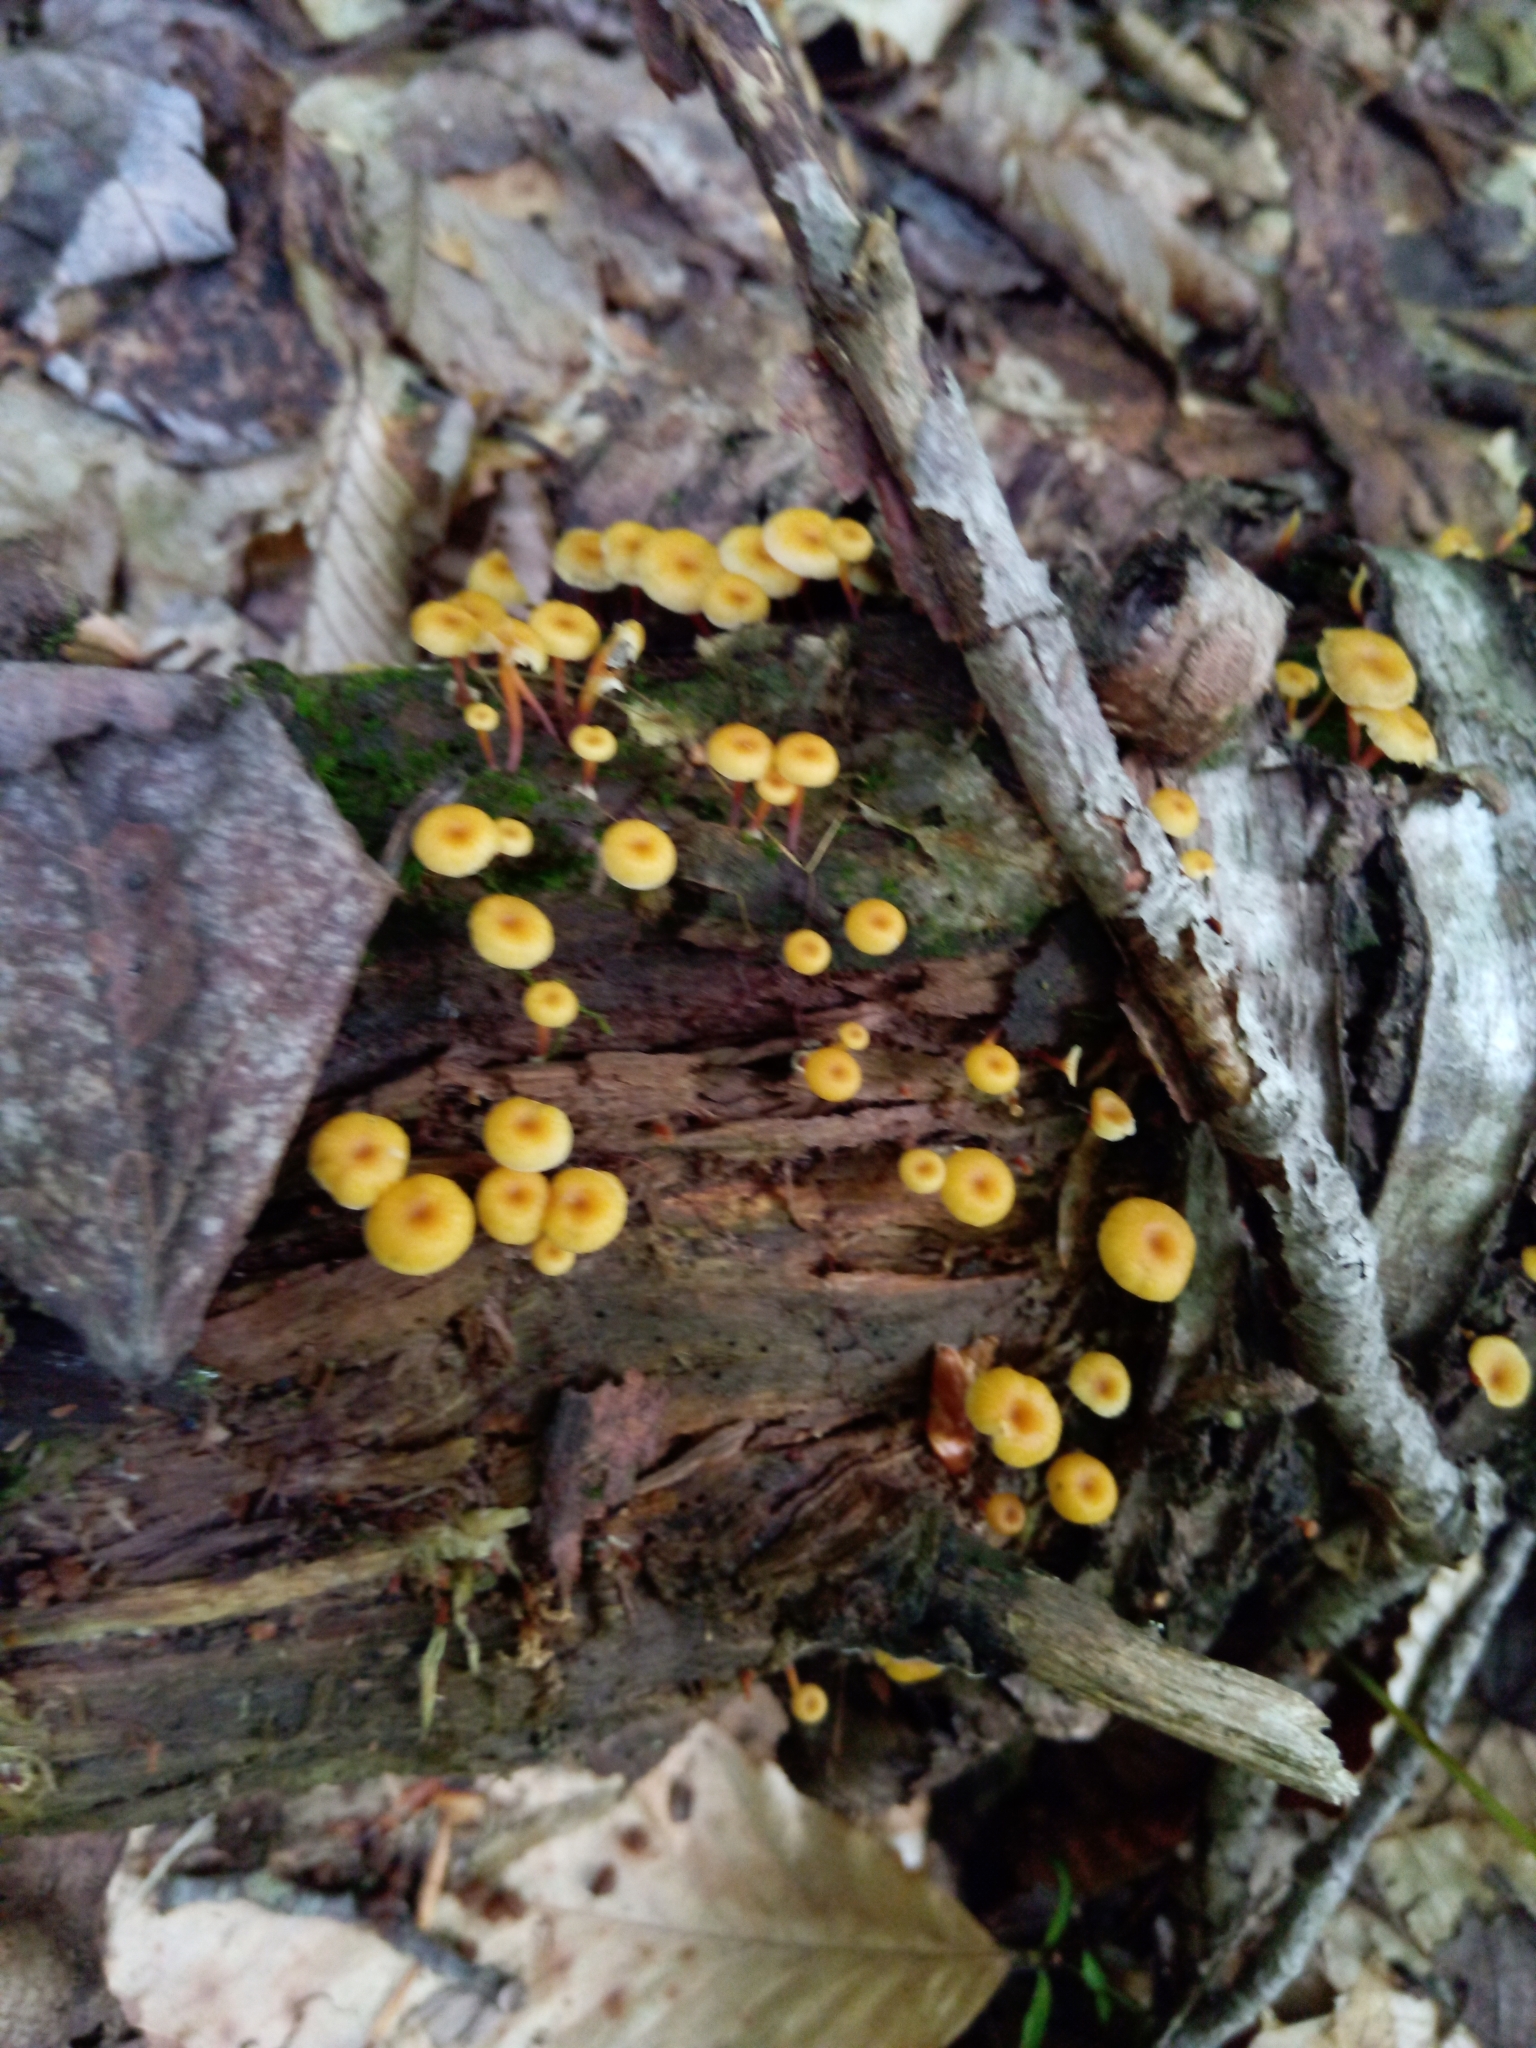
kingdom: Fungi
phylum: Basidiomycota
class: Agaricomycetes
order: Agaricales
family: Mycenaceae
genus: Xeromphalina
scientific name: Xeromphalina kauffmanii
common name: Cross-veined troop mushroom
